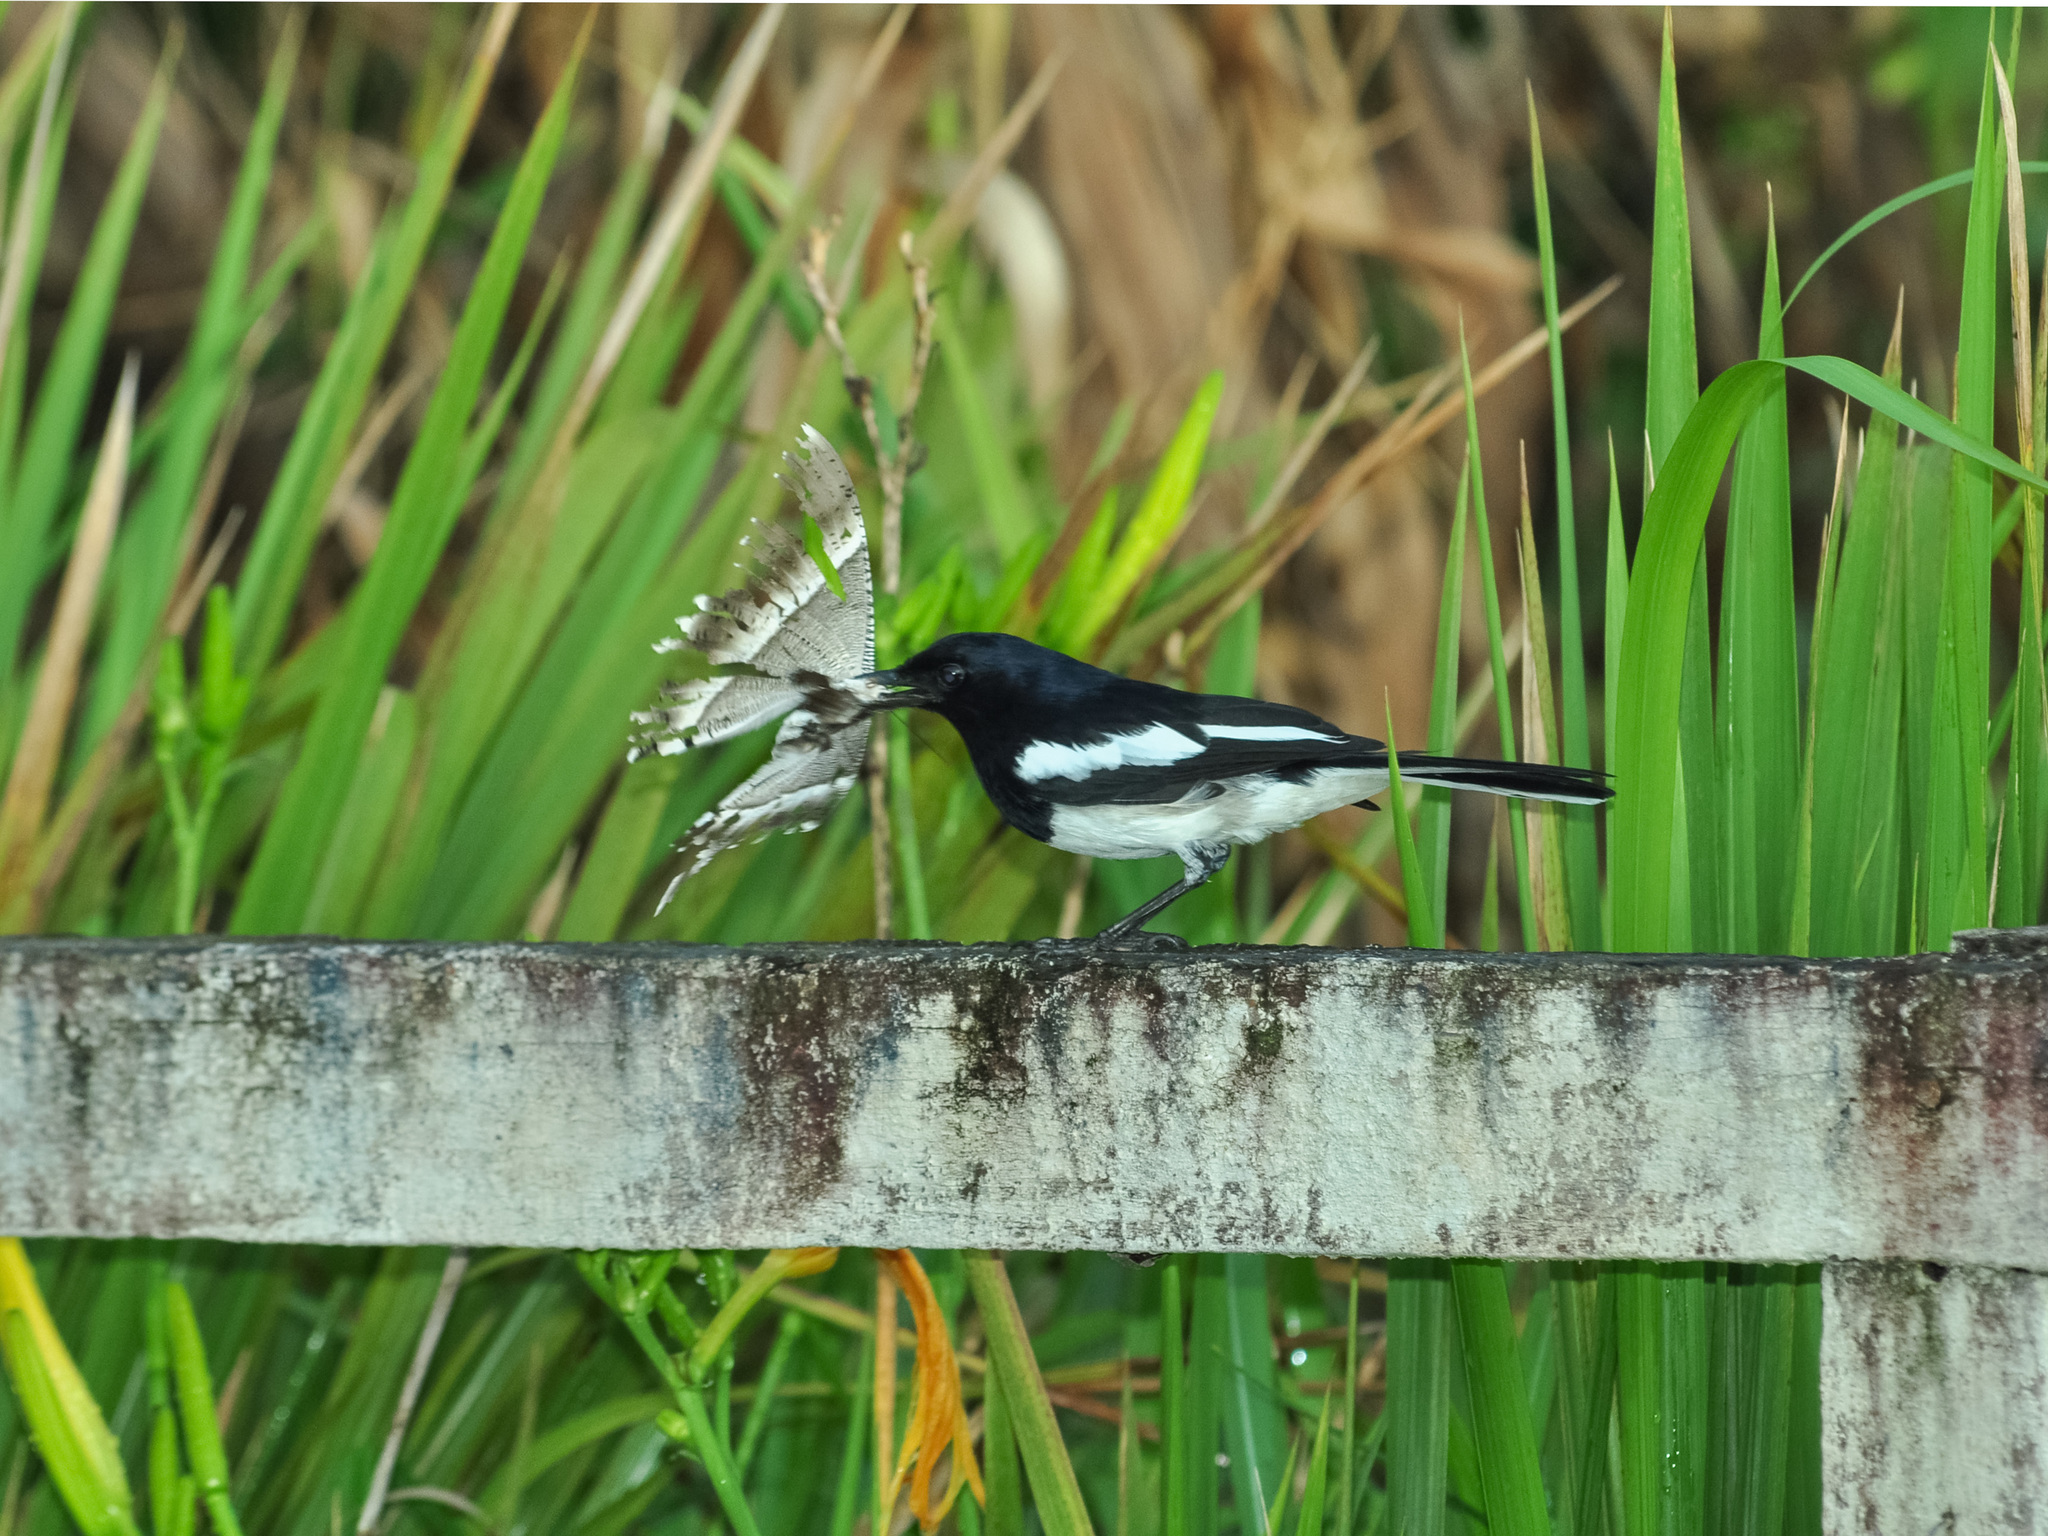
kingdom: Animalia
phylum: Chordata
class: Aves
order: Passeriformes
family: Muscicapidae
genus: Copsychus
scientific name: Copsychus saularis
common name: Oriental magpie-robin
